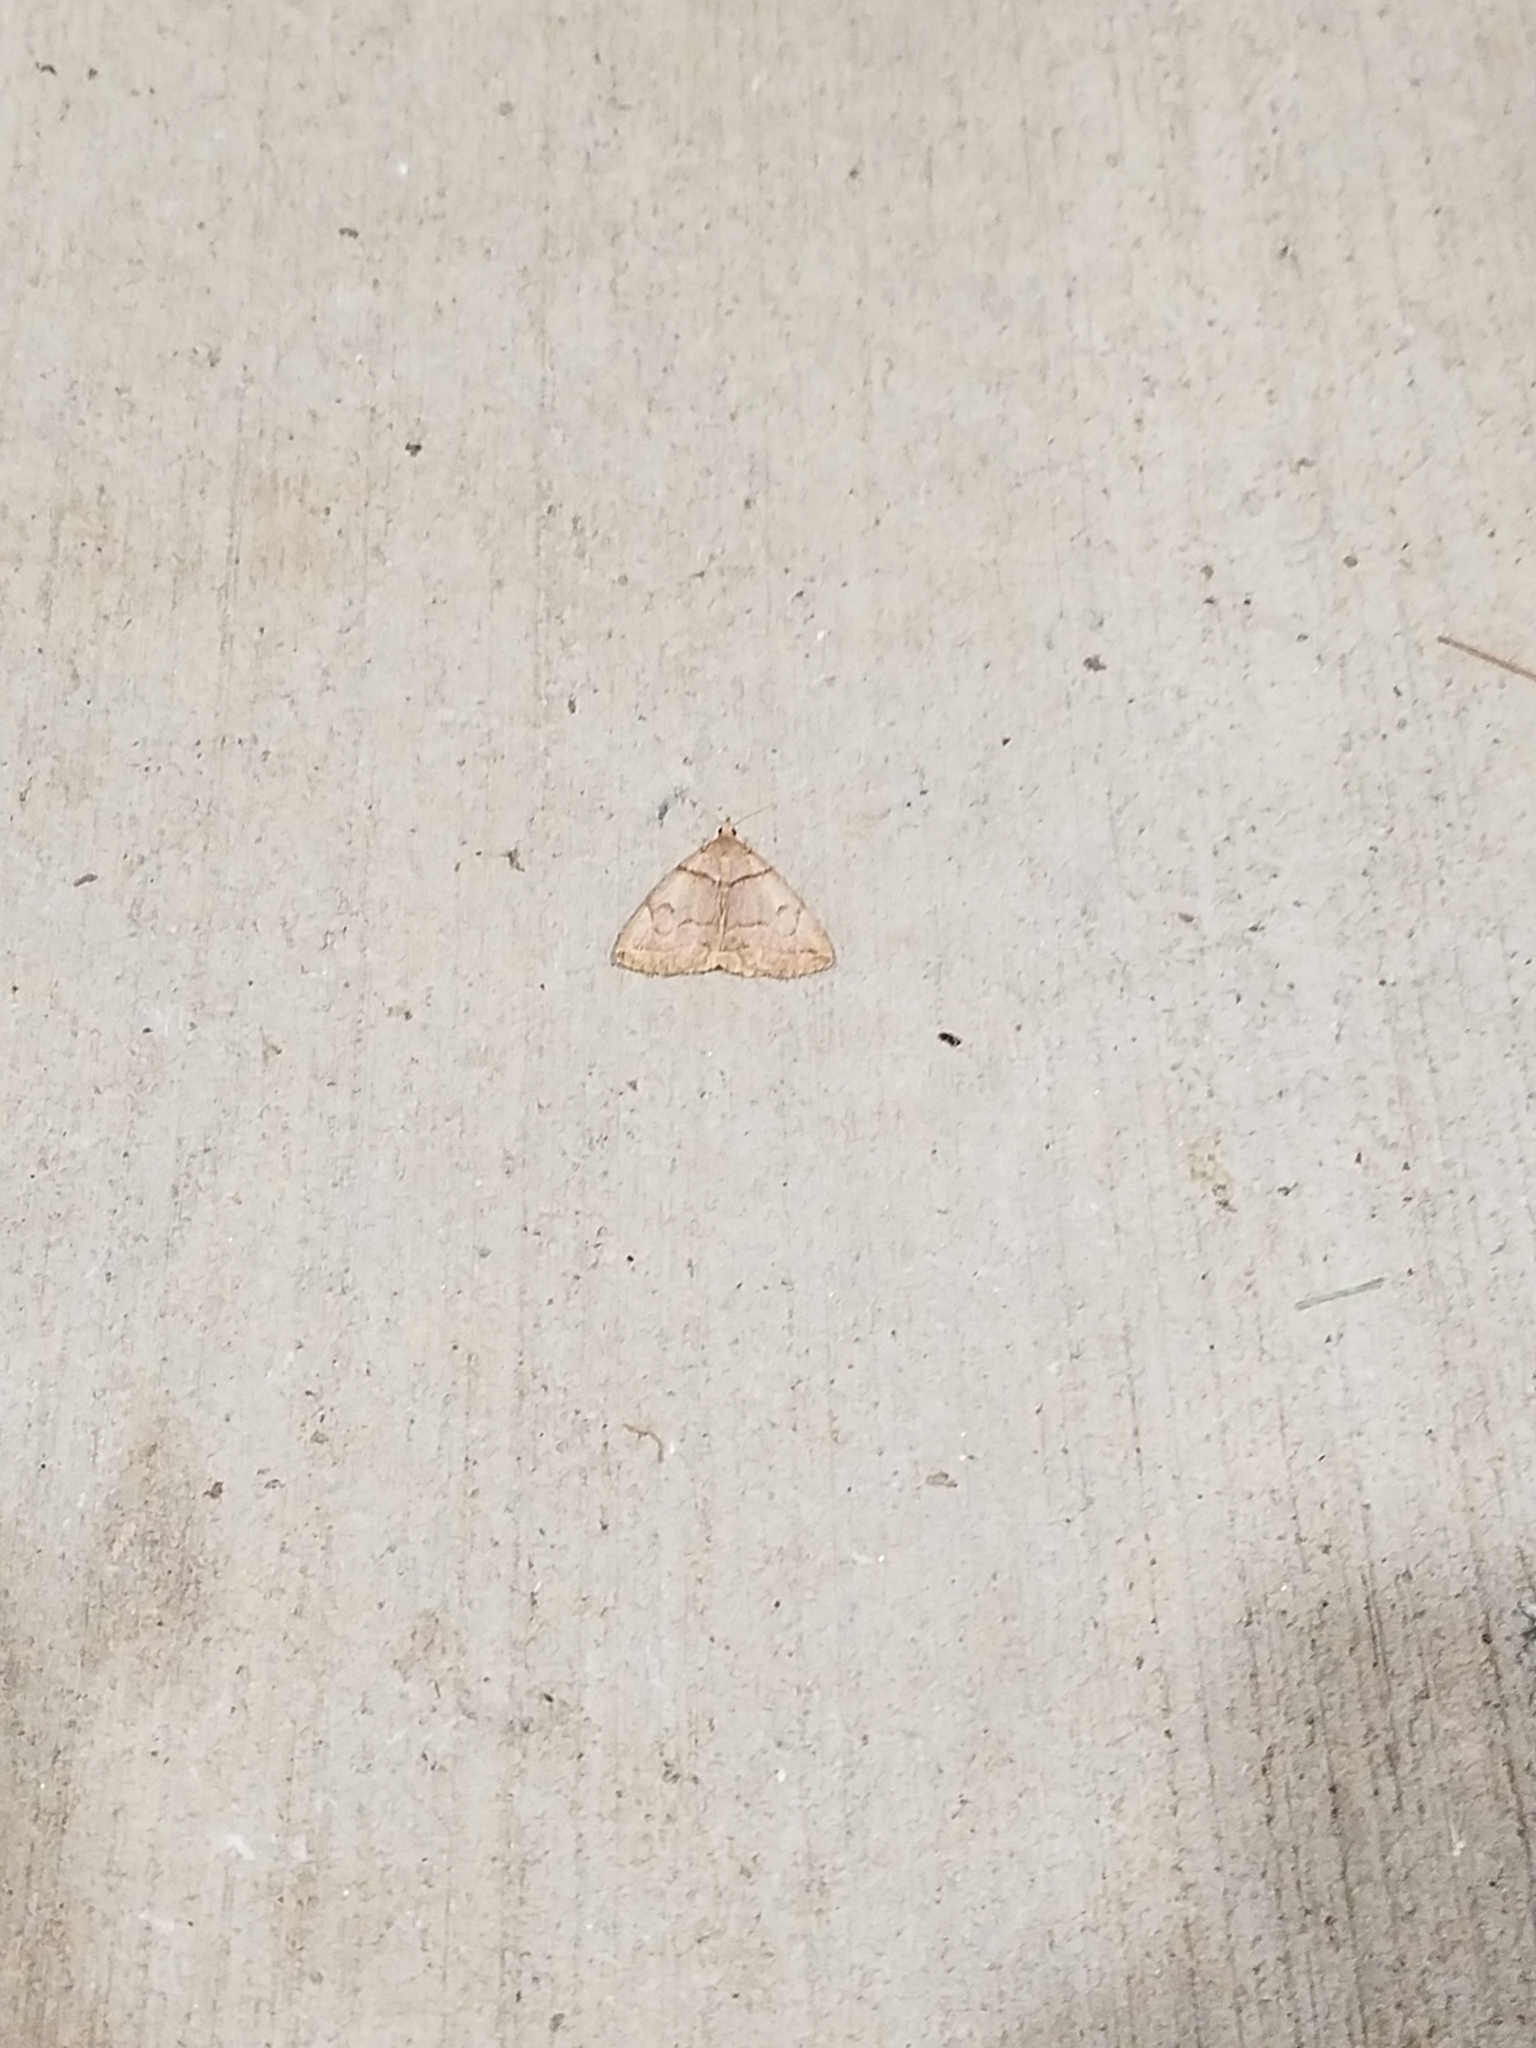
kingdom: Animalia
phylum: Arthropoda
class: Insecta
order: Lepidoptera
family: Erebidae
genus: Zanclognatha
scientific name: Zanclognatha laevigata
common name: Variable fan-foot
